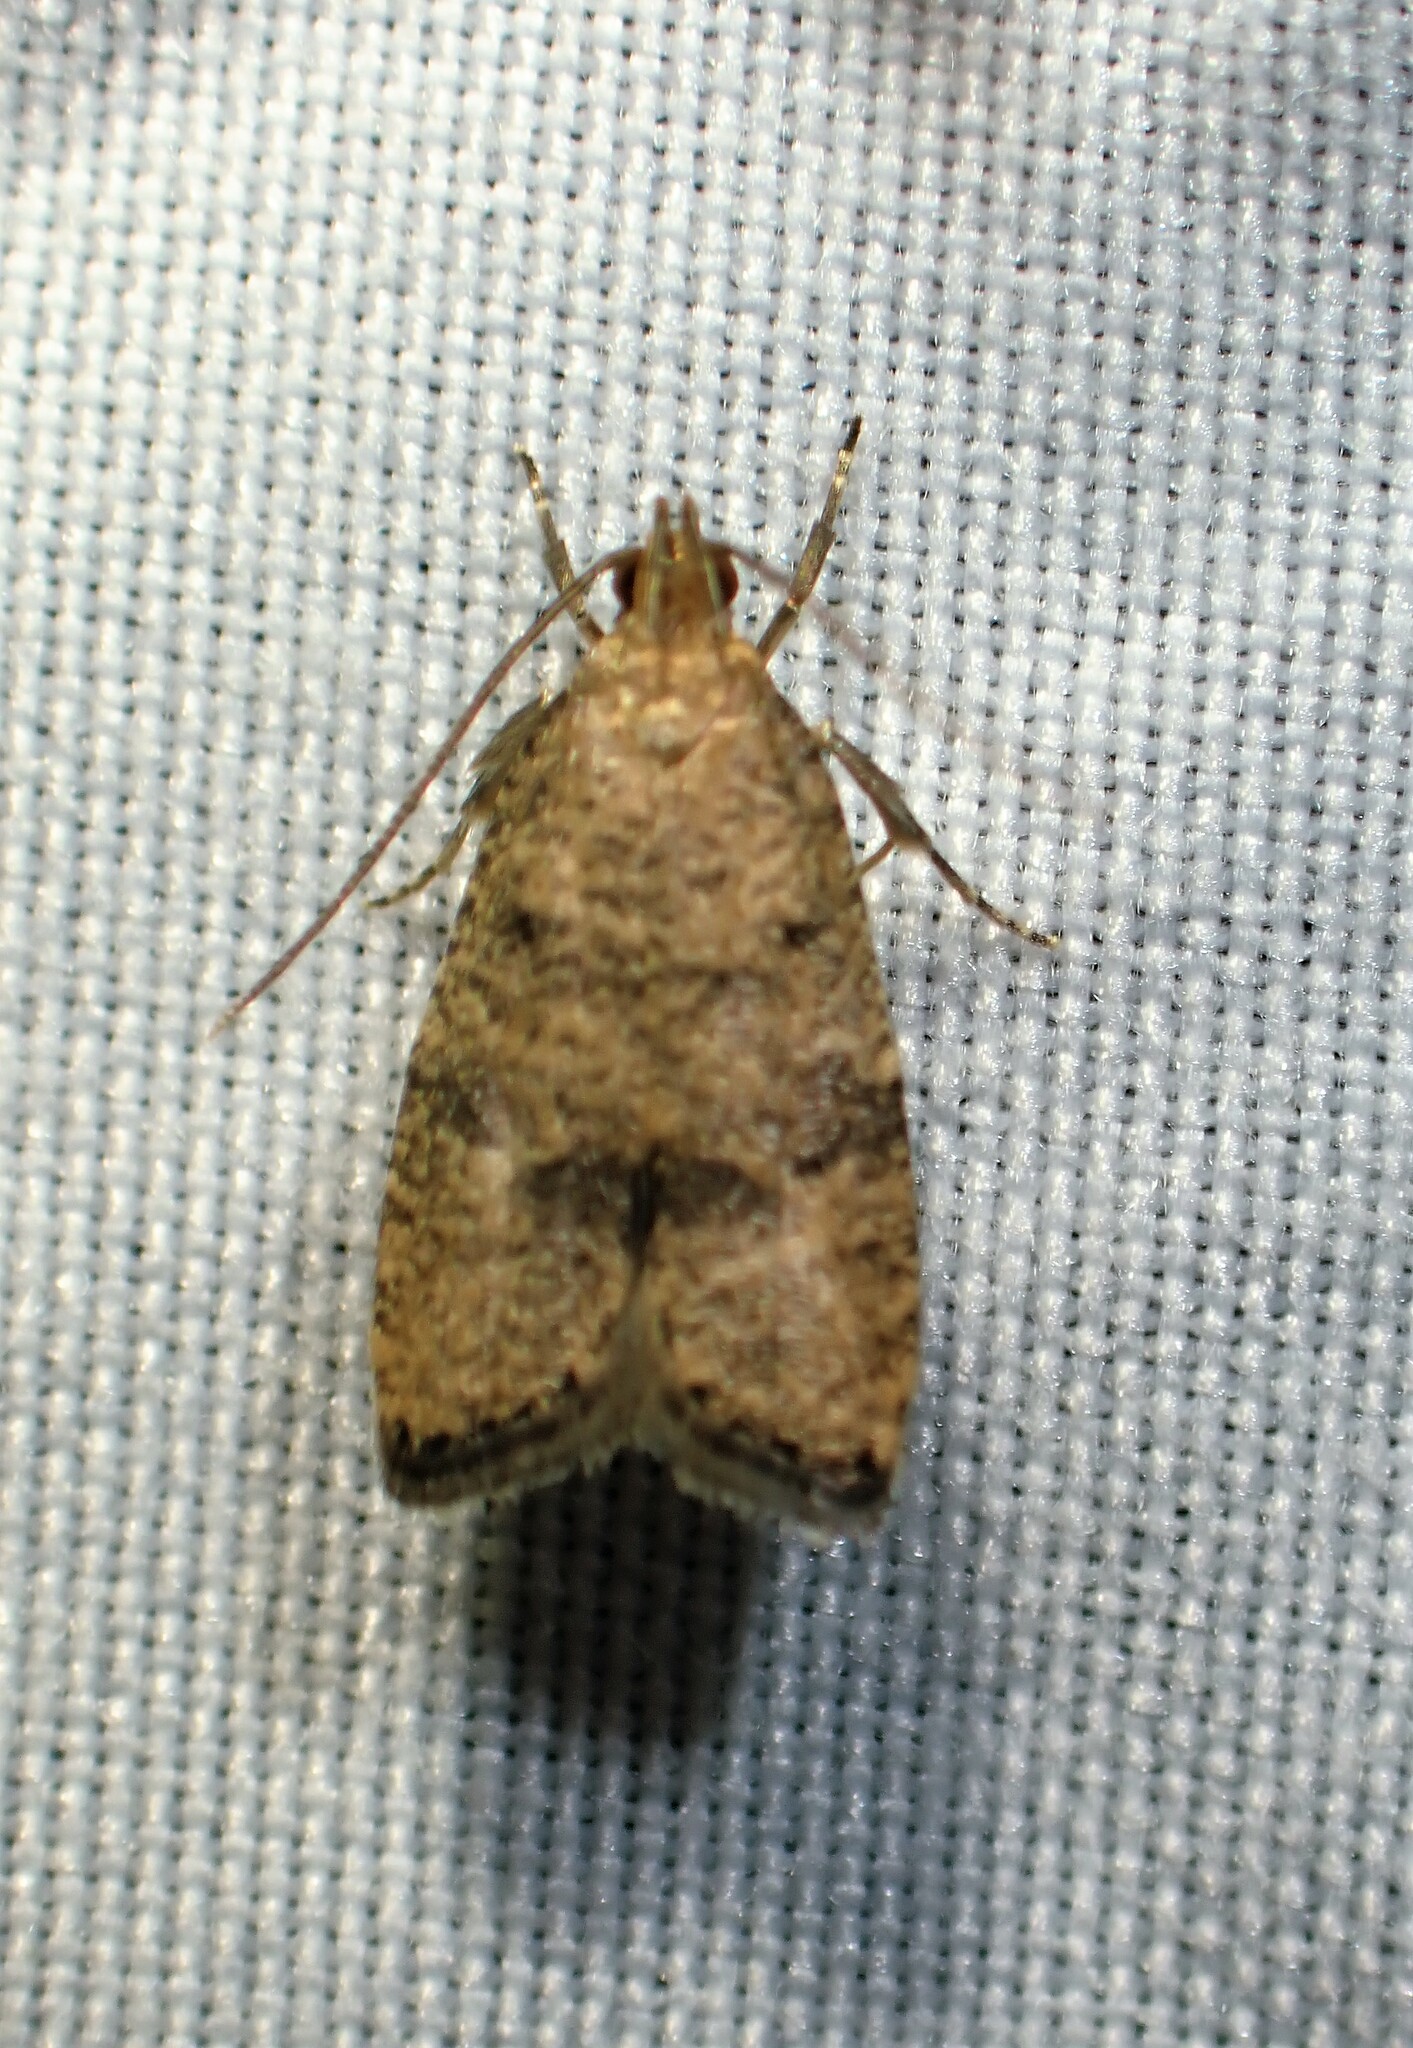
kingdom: Animalia
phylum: Arthropoda
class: Insecta
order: Lepidoptera
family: Depressariidae
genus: Psilocorsis
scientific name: Psilocorsis quercicella
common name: Oak leaftier moth
